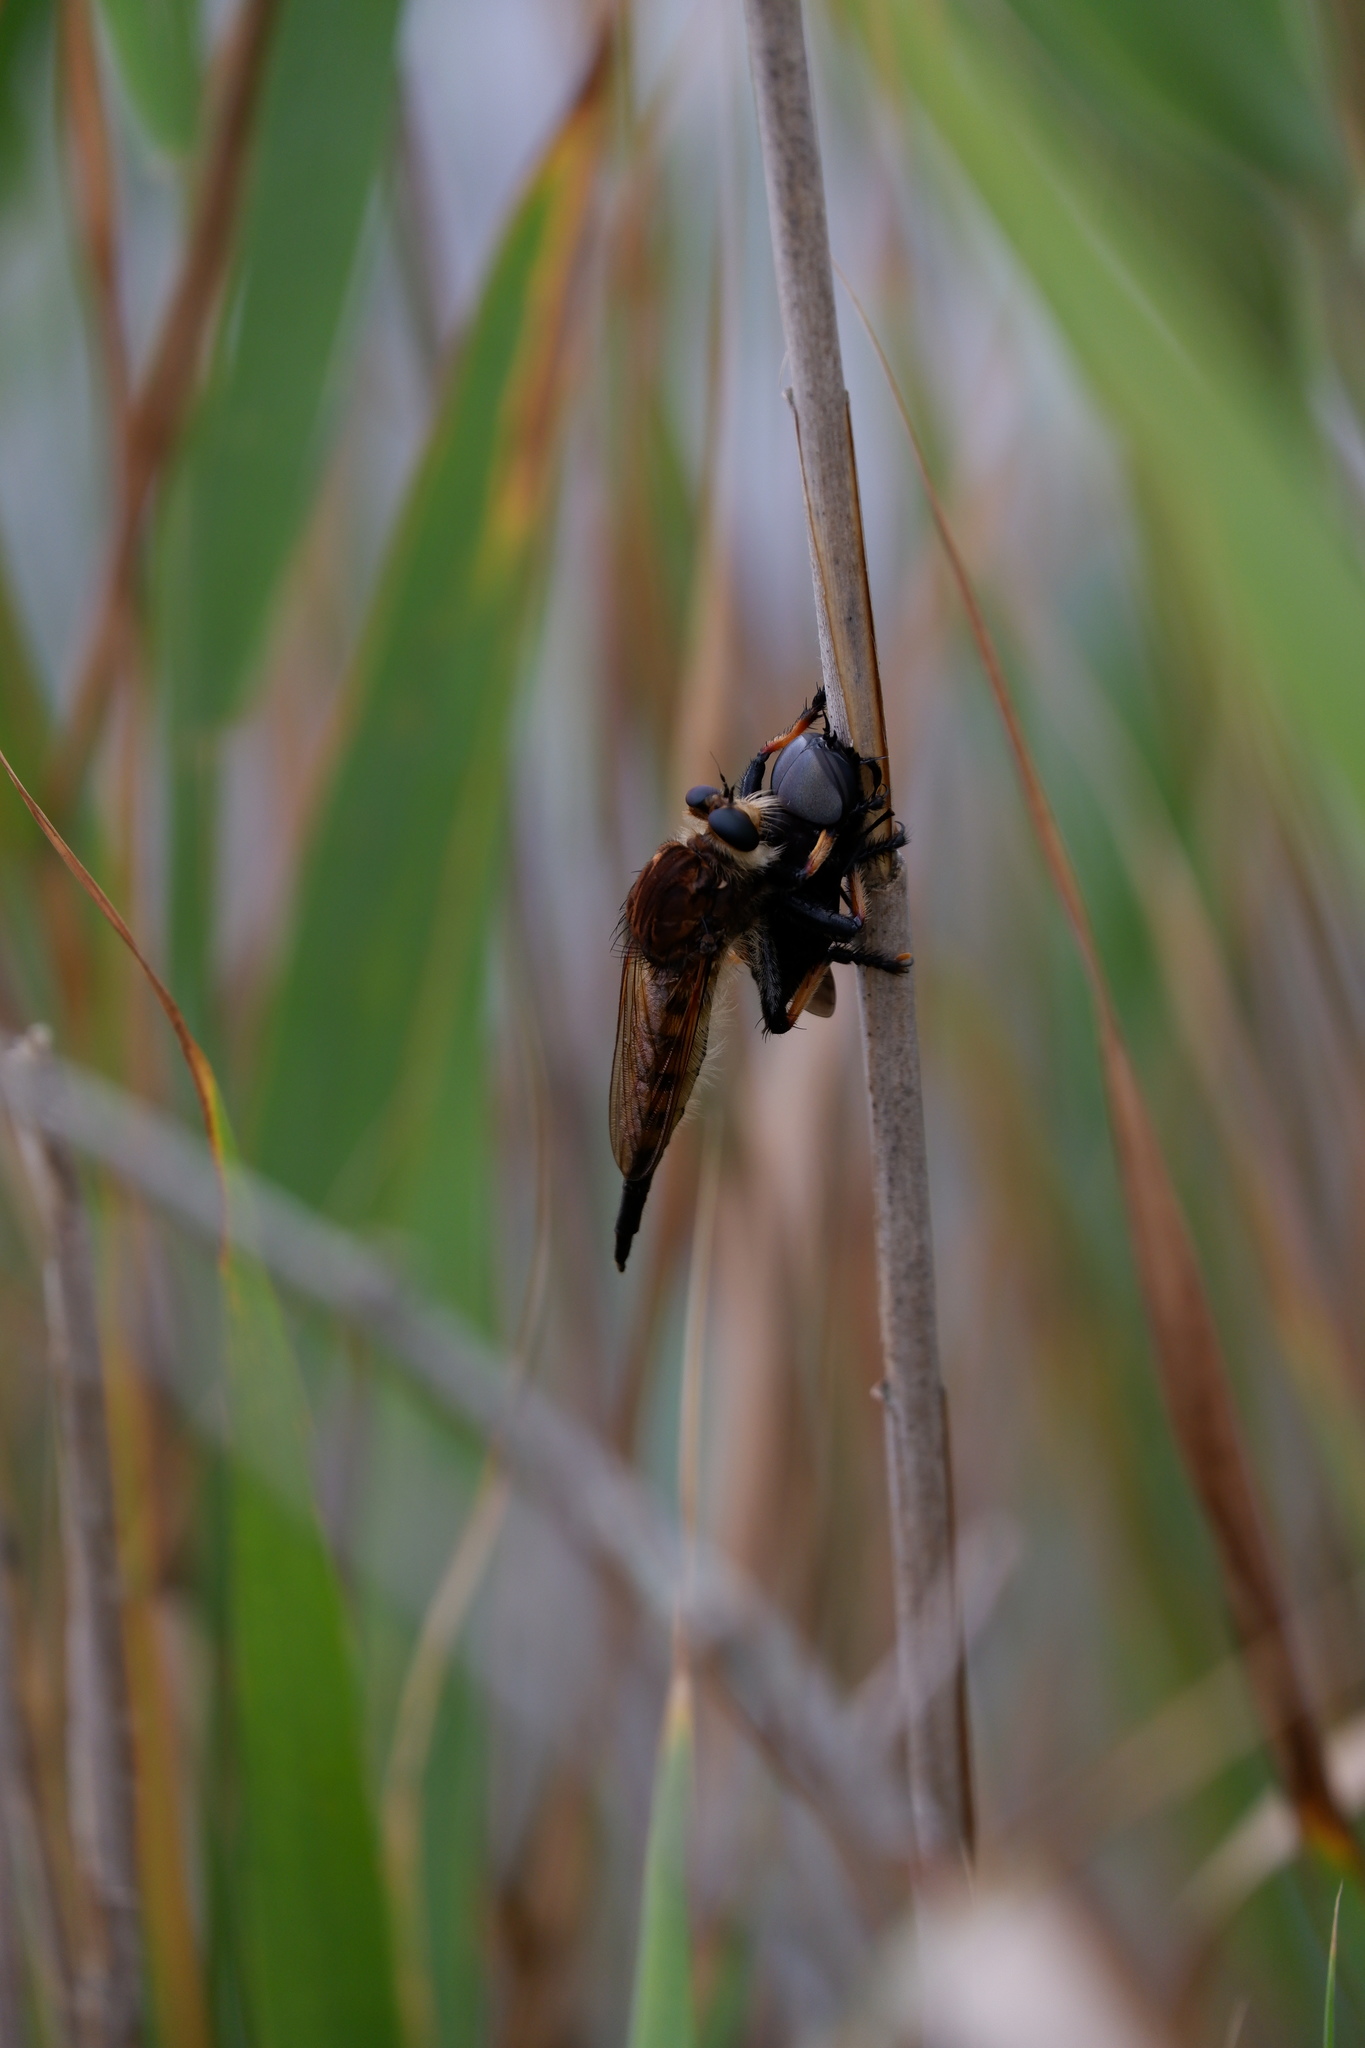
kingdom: Animalia
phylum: Arthropoda
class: Insecta
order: Diptera
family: Asilidae
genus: Promachus
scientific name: Promachus rufipes
